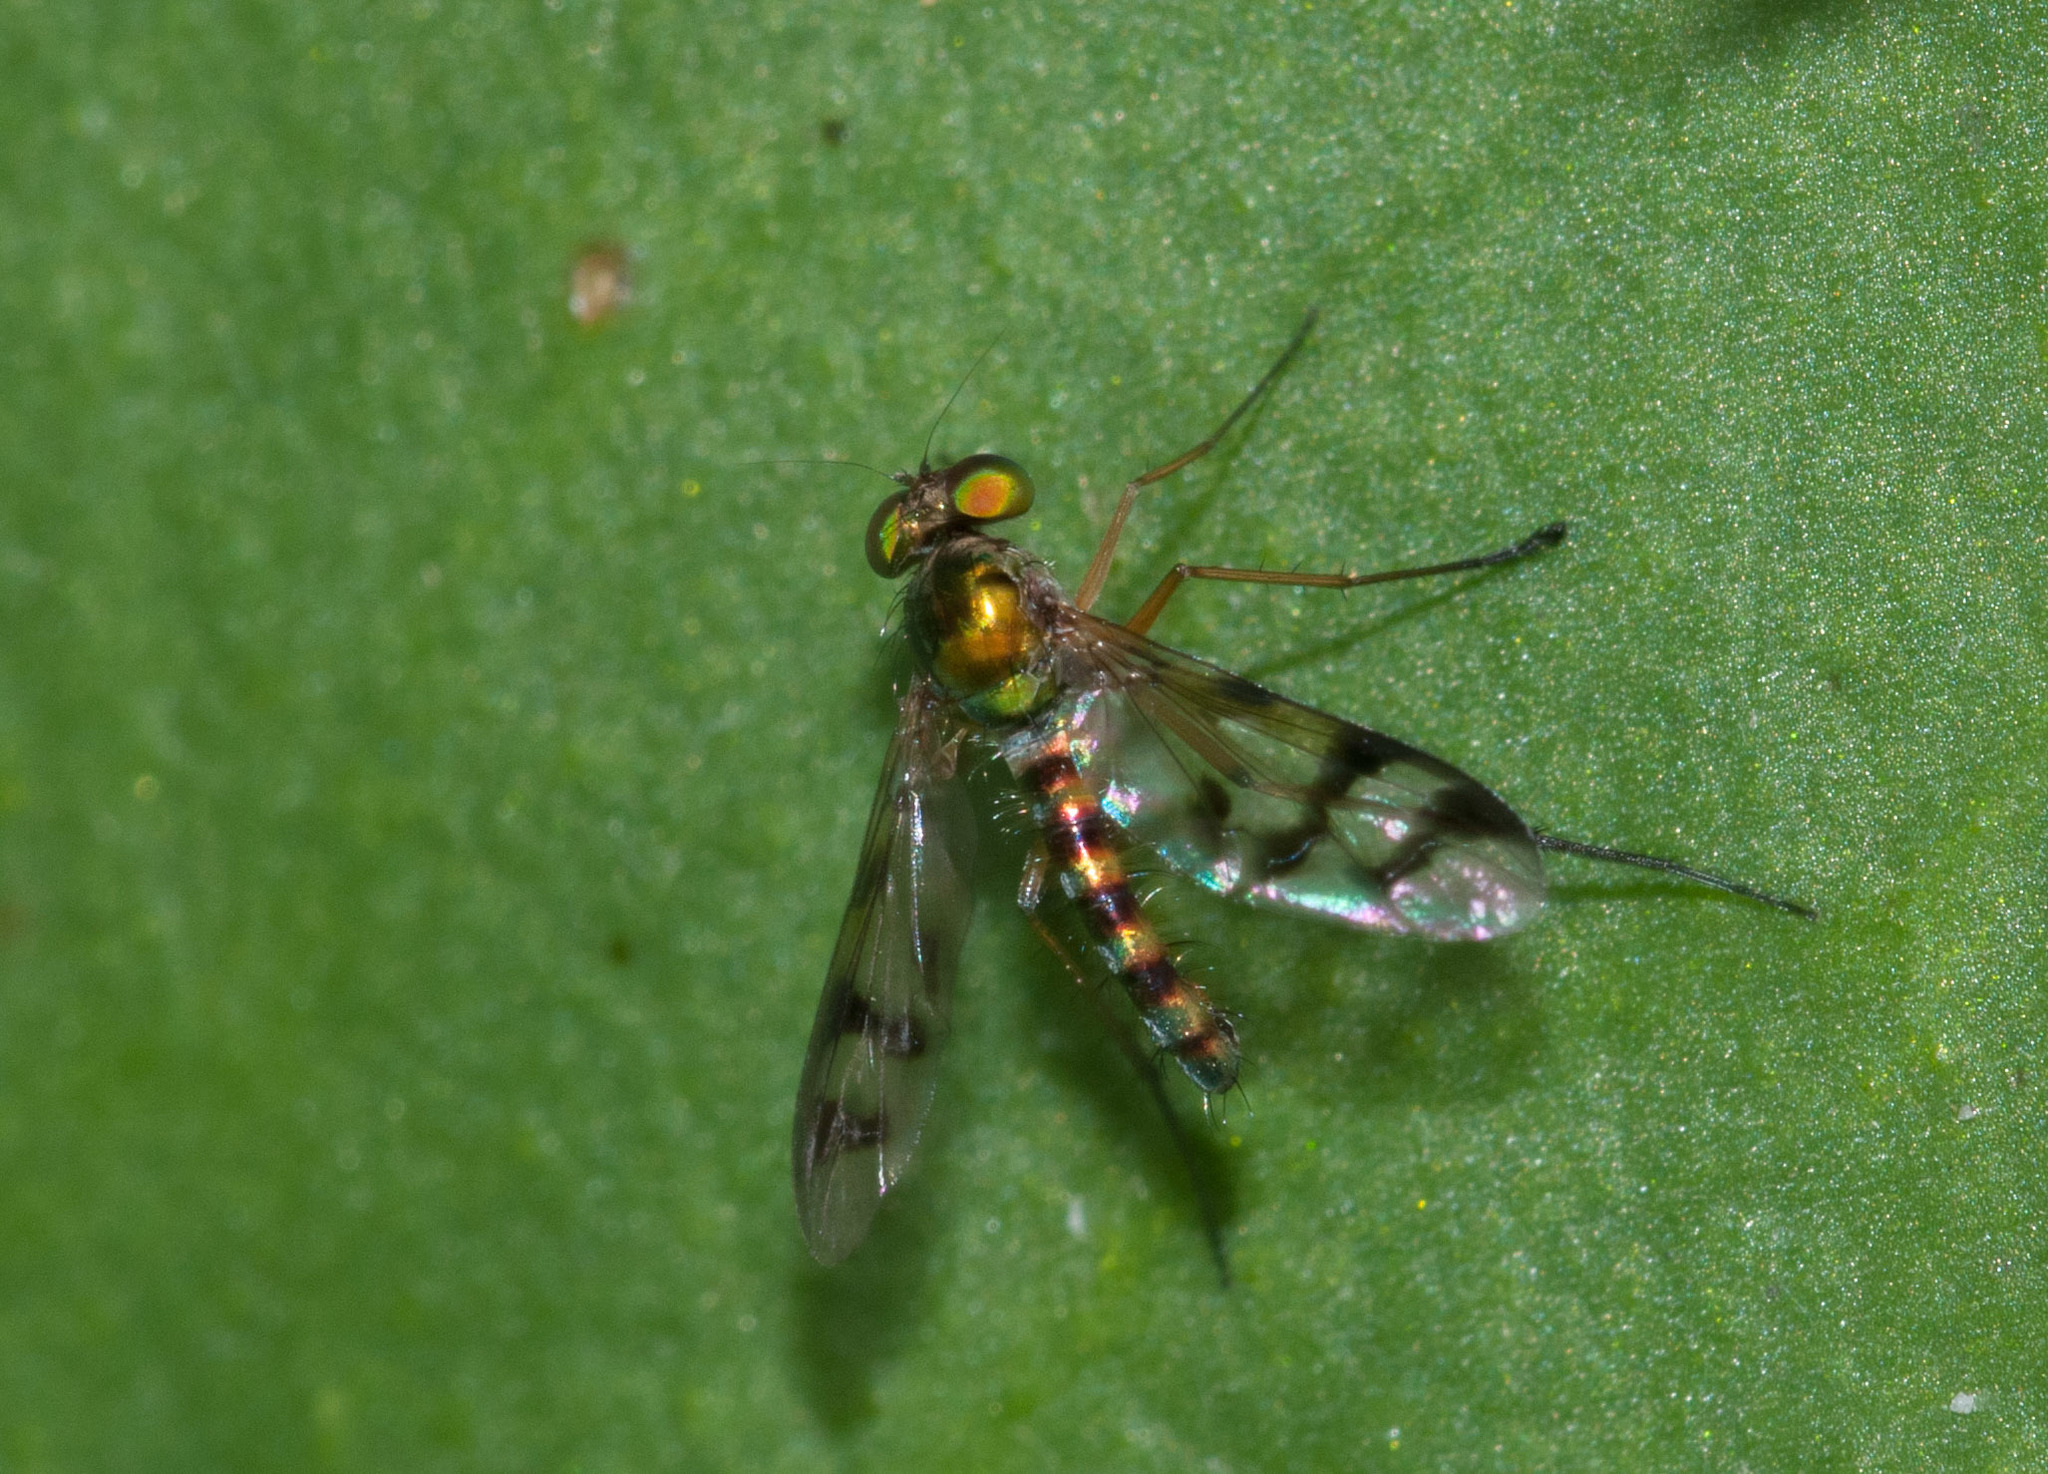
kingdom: Animalia
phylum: Arthropoda
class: Insecta
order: Diptera
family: Dolichopodidae
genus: Heteropsilopus
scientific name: Heteropsilopus ingenuum
